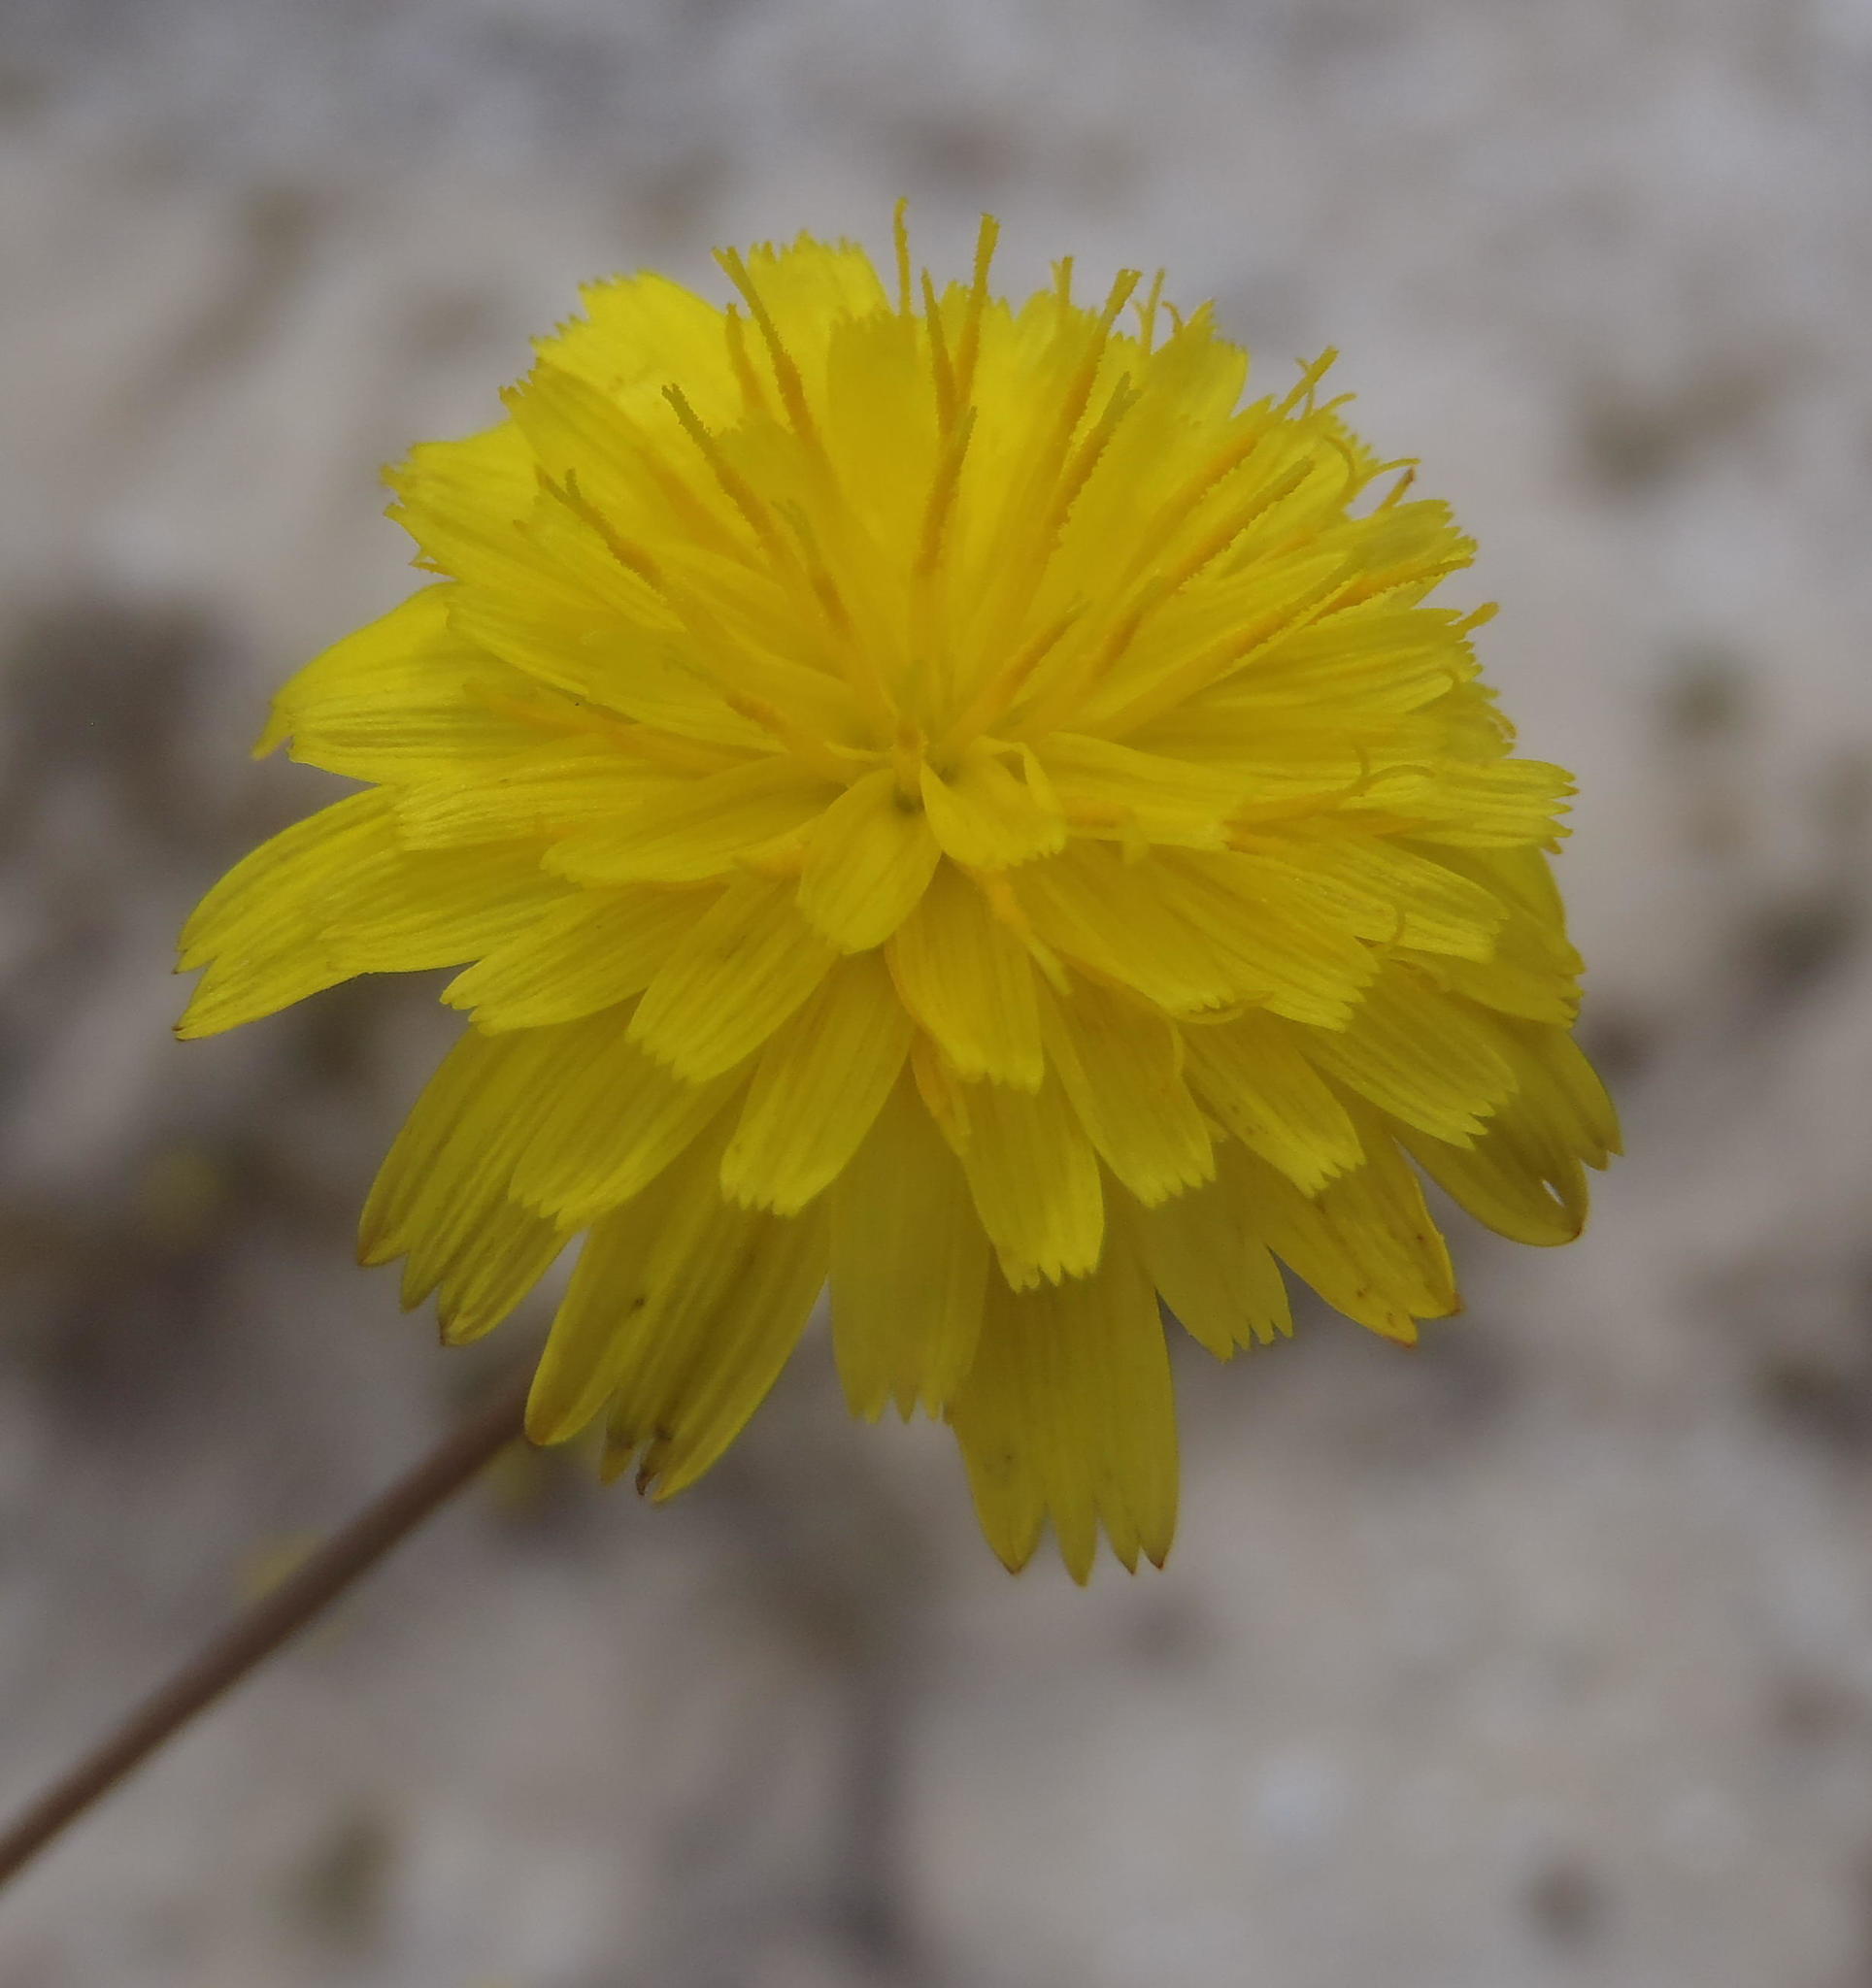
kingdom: Plantae
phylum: Tracheophyta
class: Magnoliopsida
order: Asterales
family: Asteraceae
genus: Hypochaeris
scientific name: Hypochaeris radicata
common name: Flatweed
